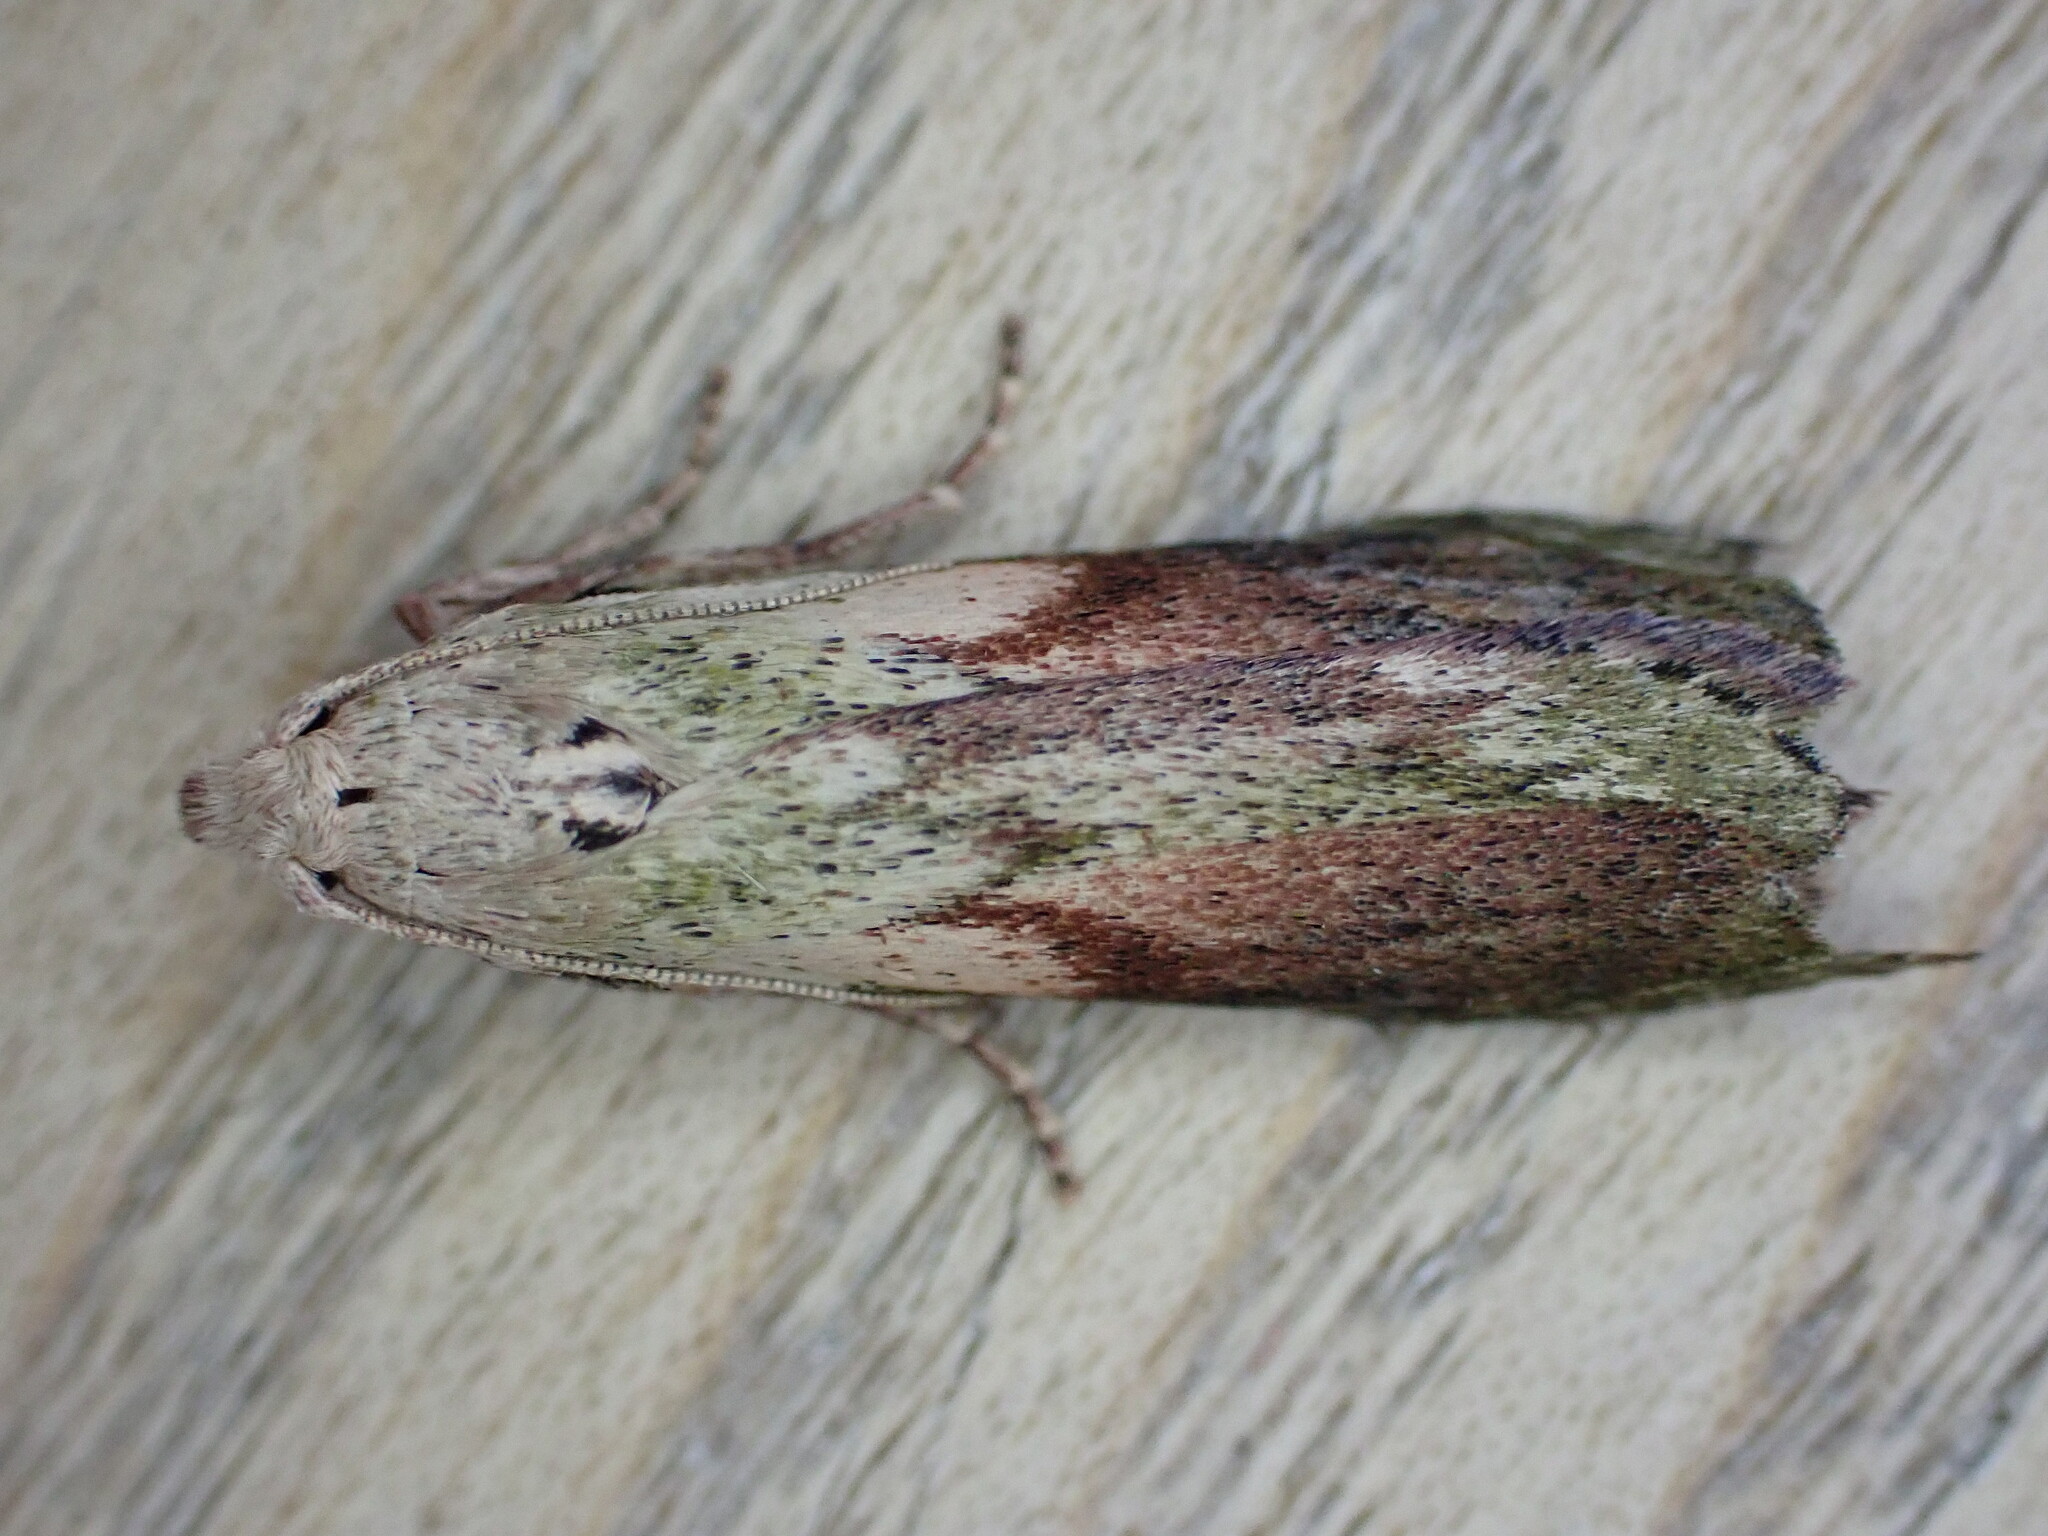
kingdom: Animalia
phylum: Arthropoda
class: Insecta
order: Lepidoptera
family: Pyralidae
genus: Aphomia
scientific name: Aphomia sociella
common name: Bee moth
